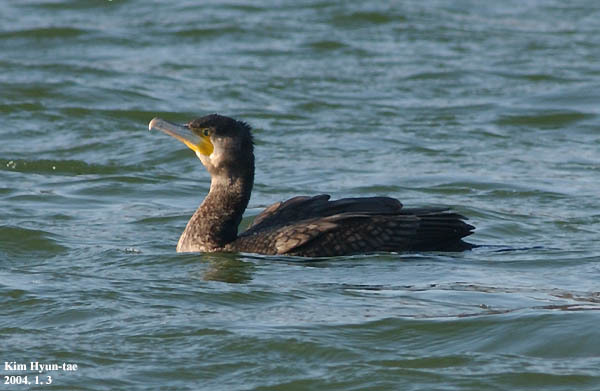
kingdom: Animalia
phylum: Chordata
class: Aves
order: Suliformes
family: Phalacrocoracidae
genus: Phalacrocorax
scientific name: Phalacrocorax carbo
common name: Great cormorant
